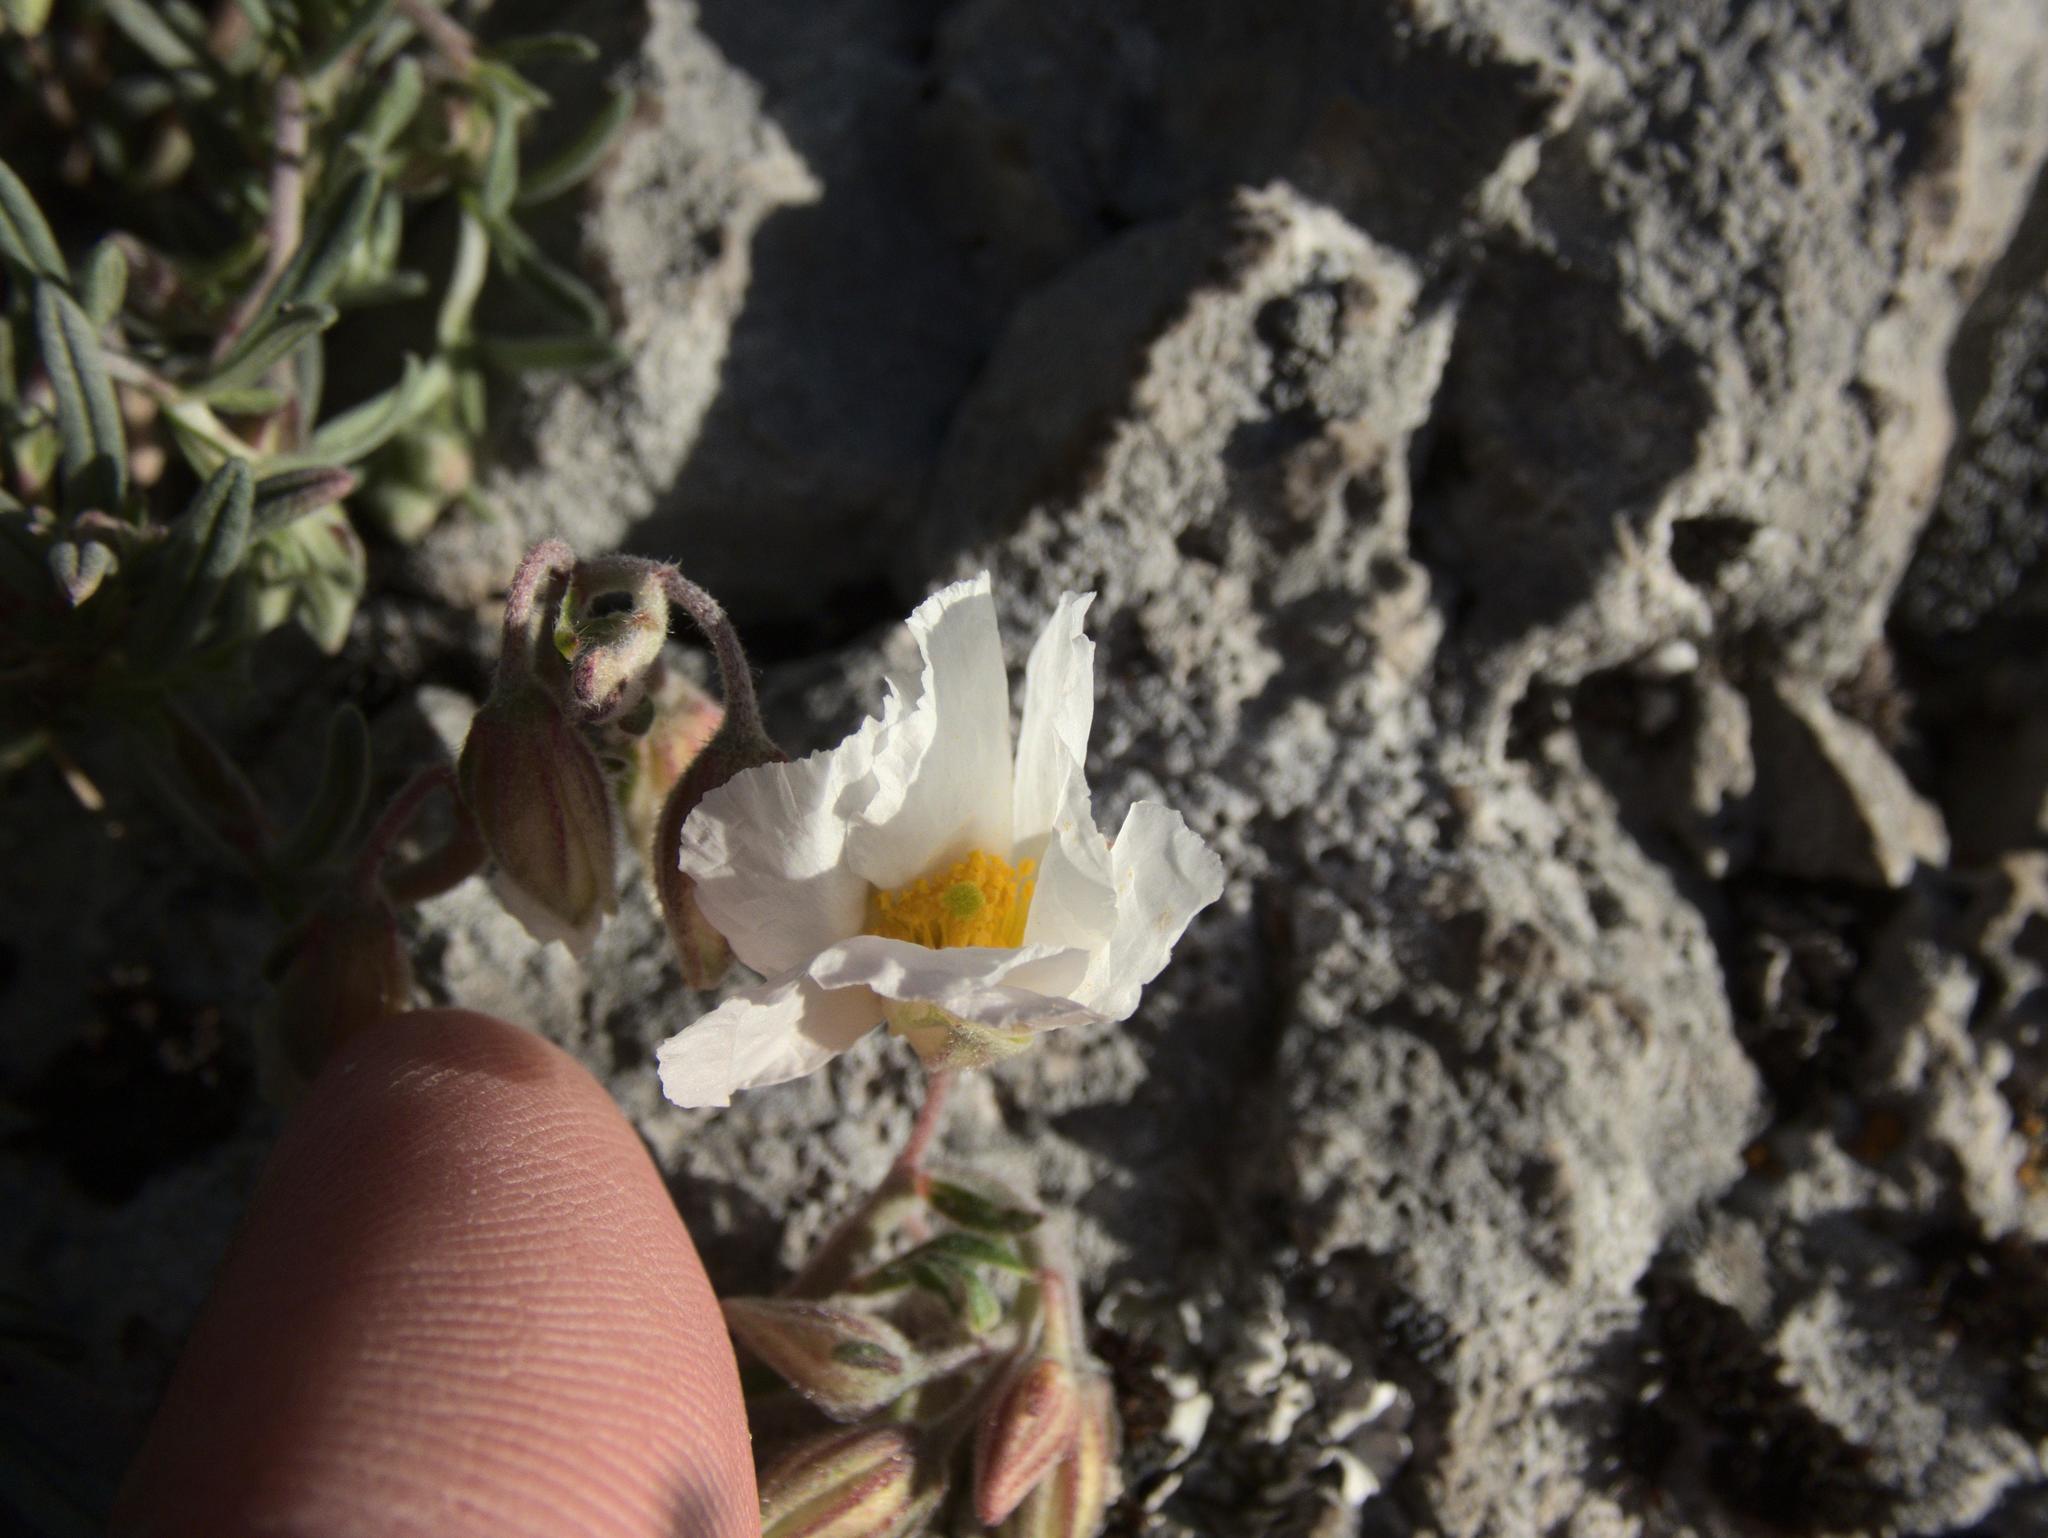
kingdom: Plantae
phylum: Tracheophyta
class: Magnoliopsida
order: Malvales
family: Cistaceae
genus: Helianthemum
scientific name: Helianthemum apenninum
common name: White rock-rose
